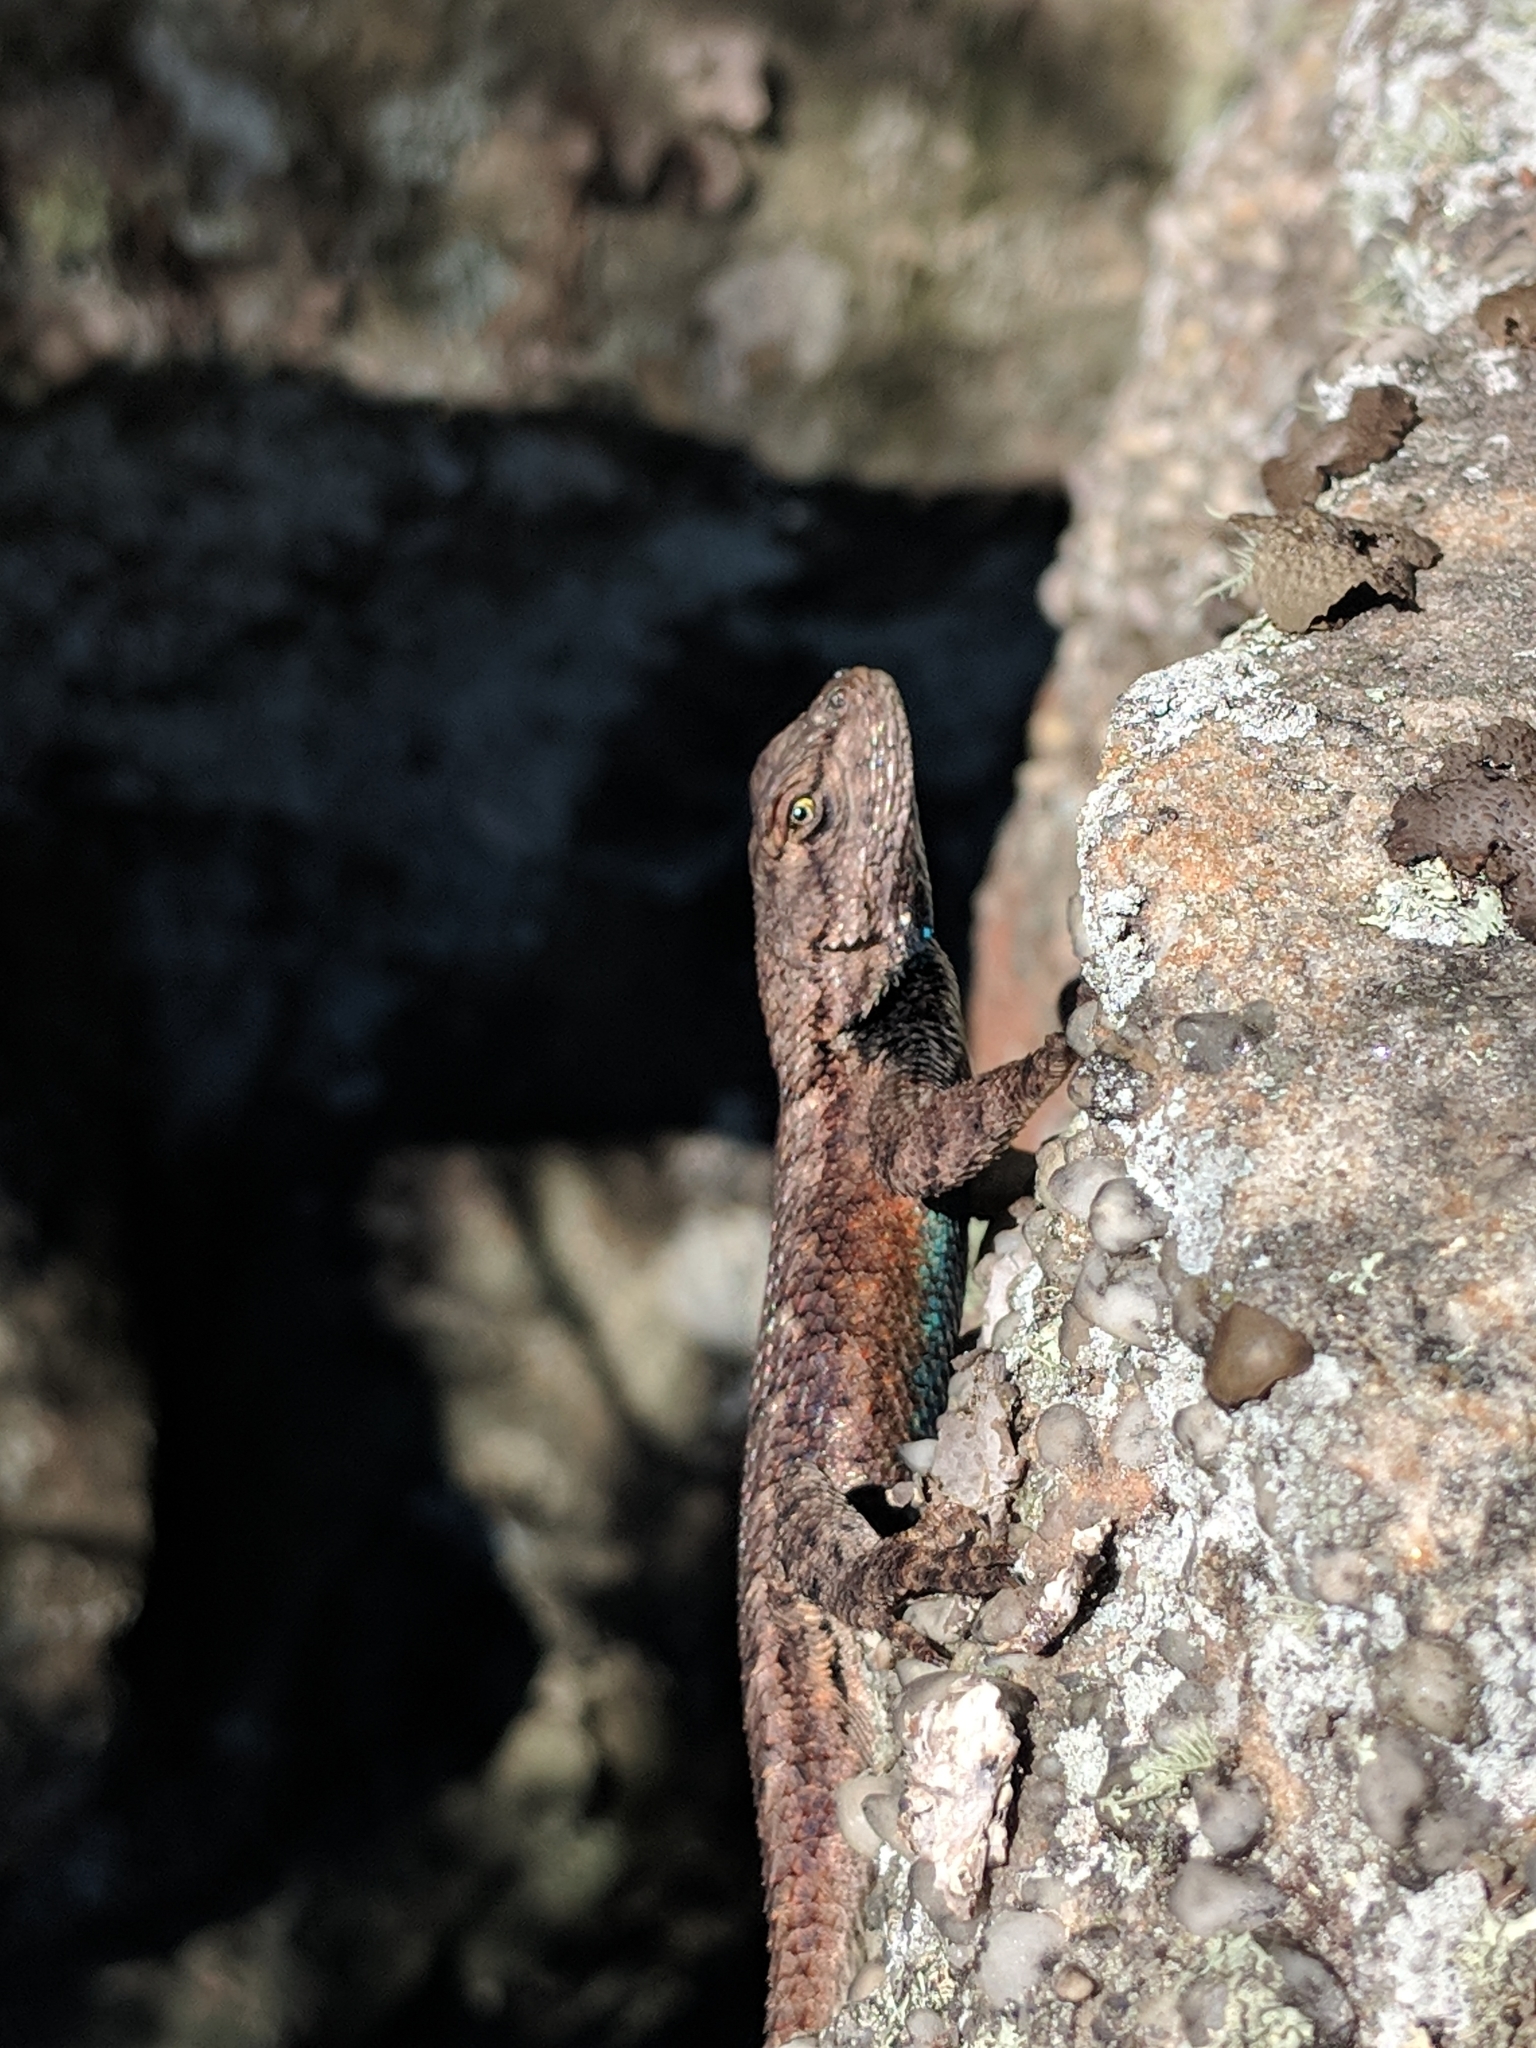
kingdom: Animalia
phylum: Chordata
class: Squamata
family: Phrynosomatidae
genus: Sceloporus
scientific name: Sceloporus undulatus
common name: Eastern fence lizard
